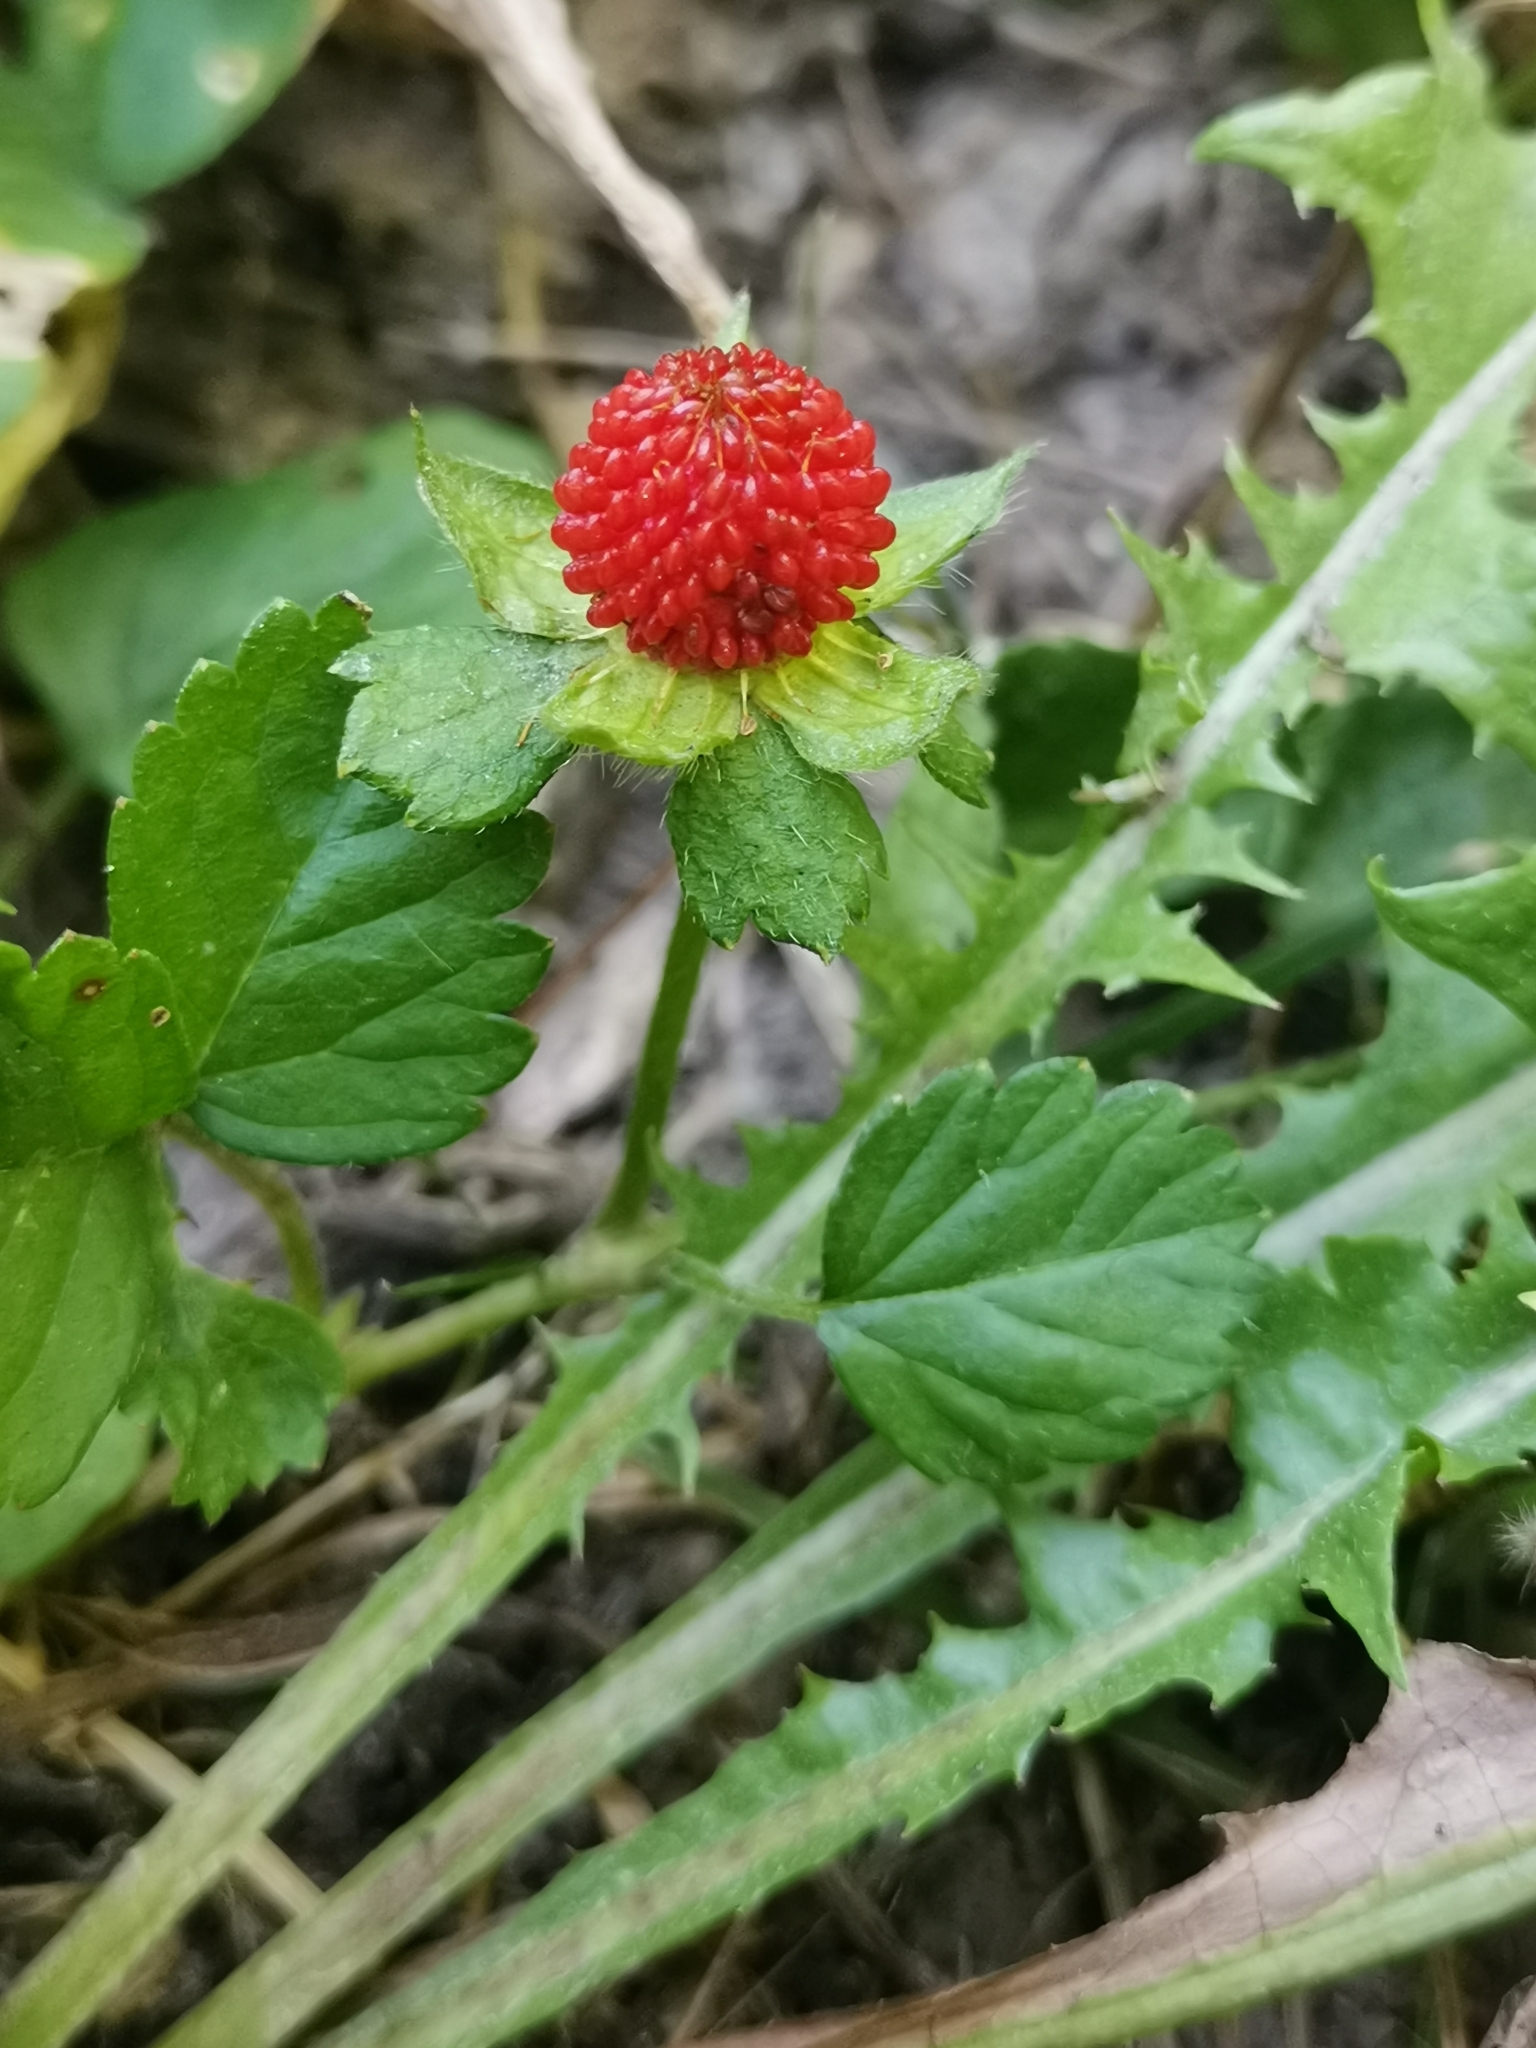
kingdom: Plantae
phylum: Tracheophyta
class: Magnoliopsida
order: Rosales
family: Rosaceae
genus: Potentilla
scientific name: Potentilla indica
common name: Yellow-flowered strawberry
